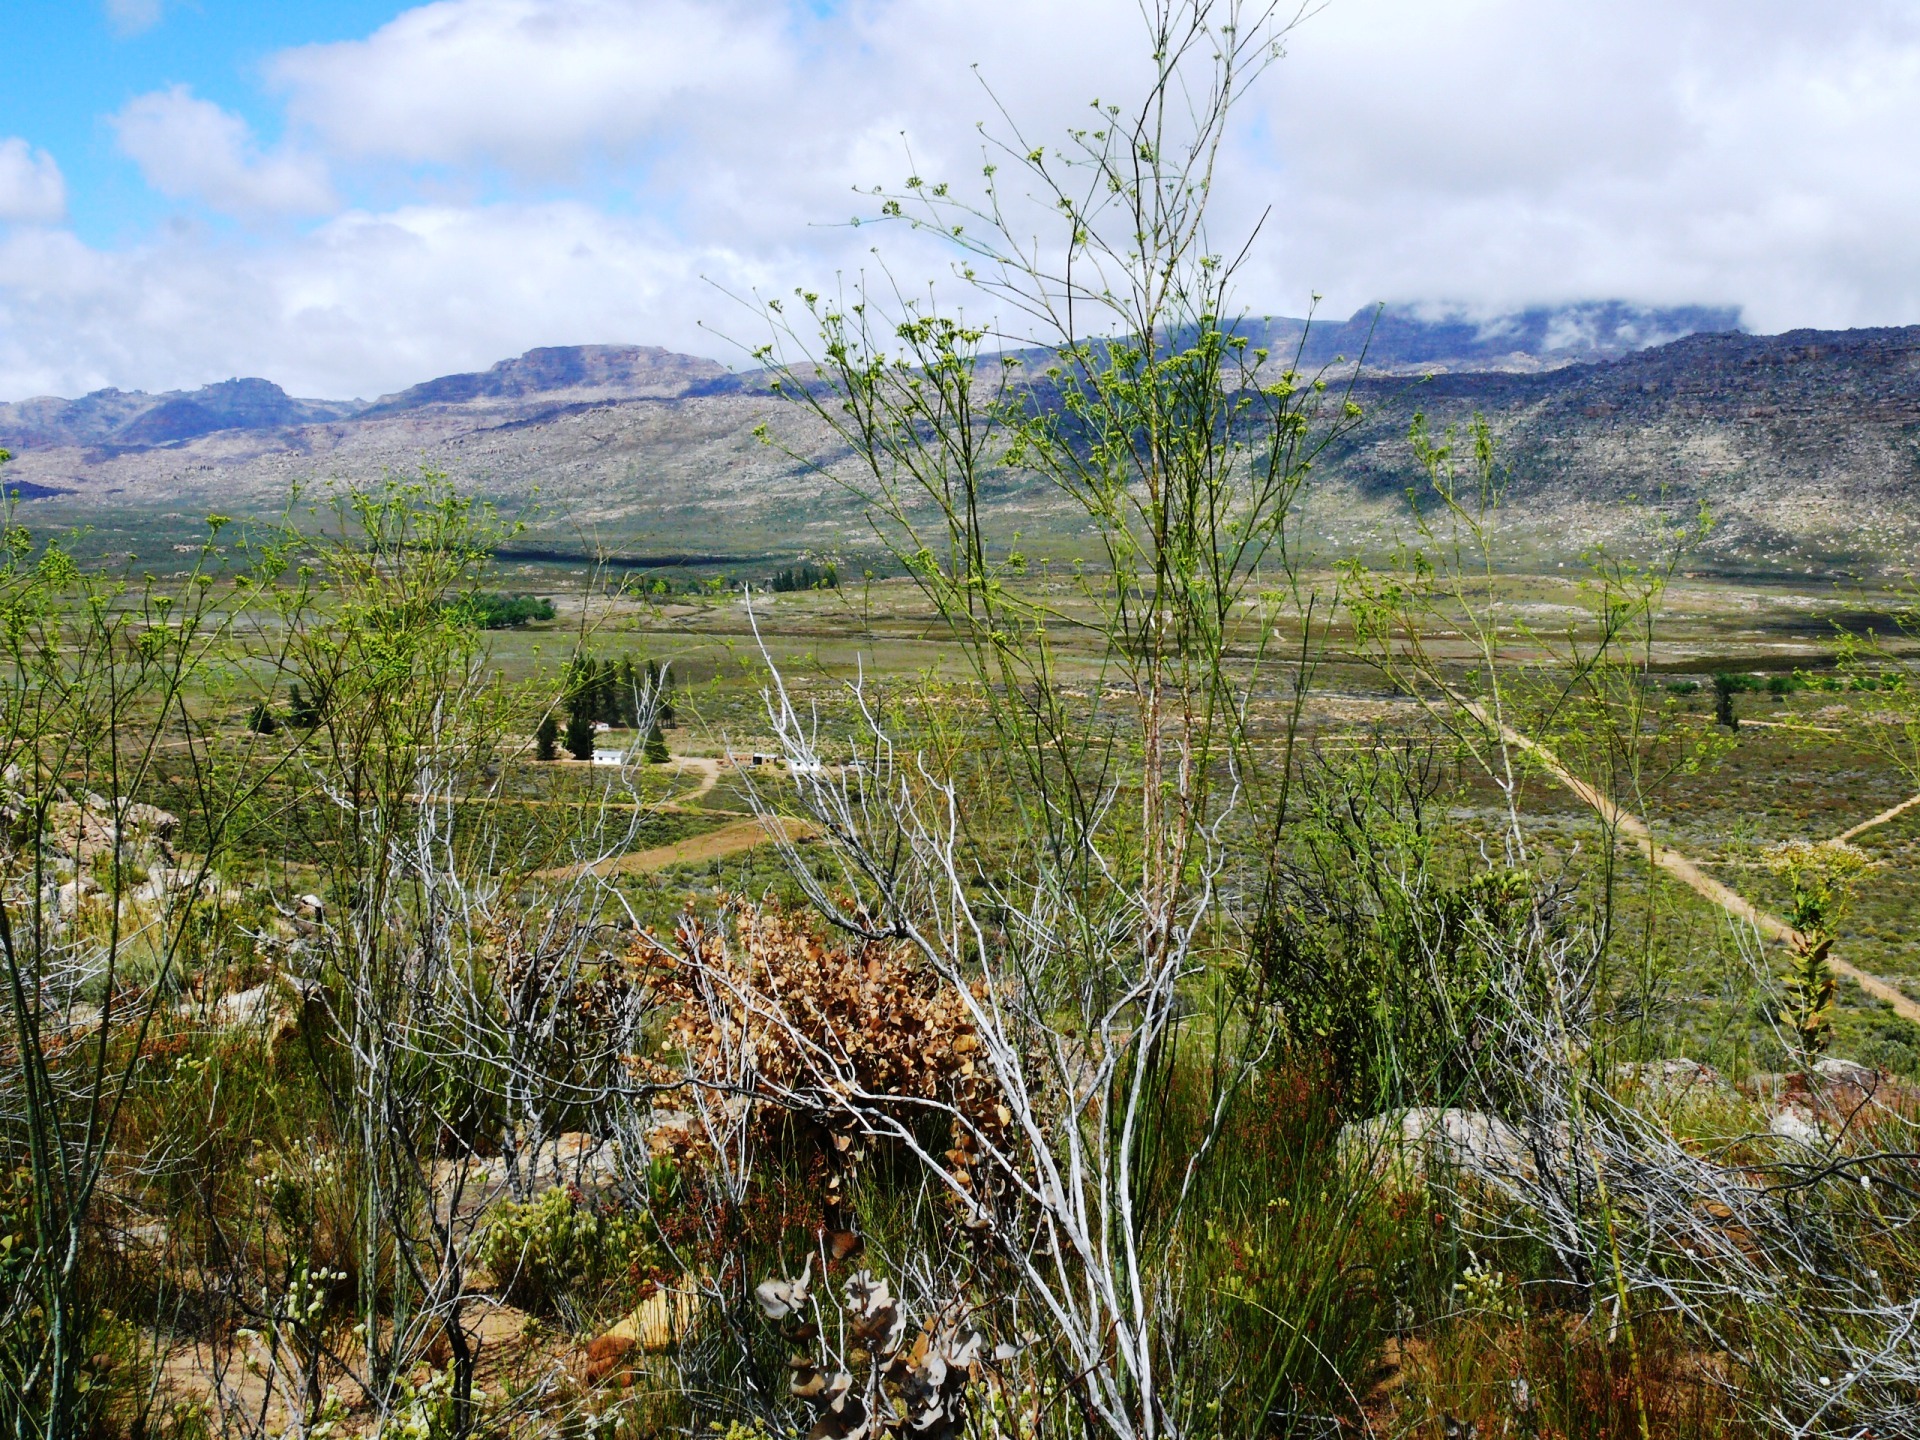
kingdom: Plantae
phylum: Tracheophyta
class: Magnoliopsida
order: Santalales
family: Thesiaceae
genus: Thesium
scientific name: Thesium strictum
